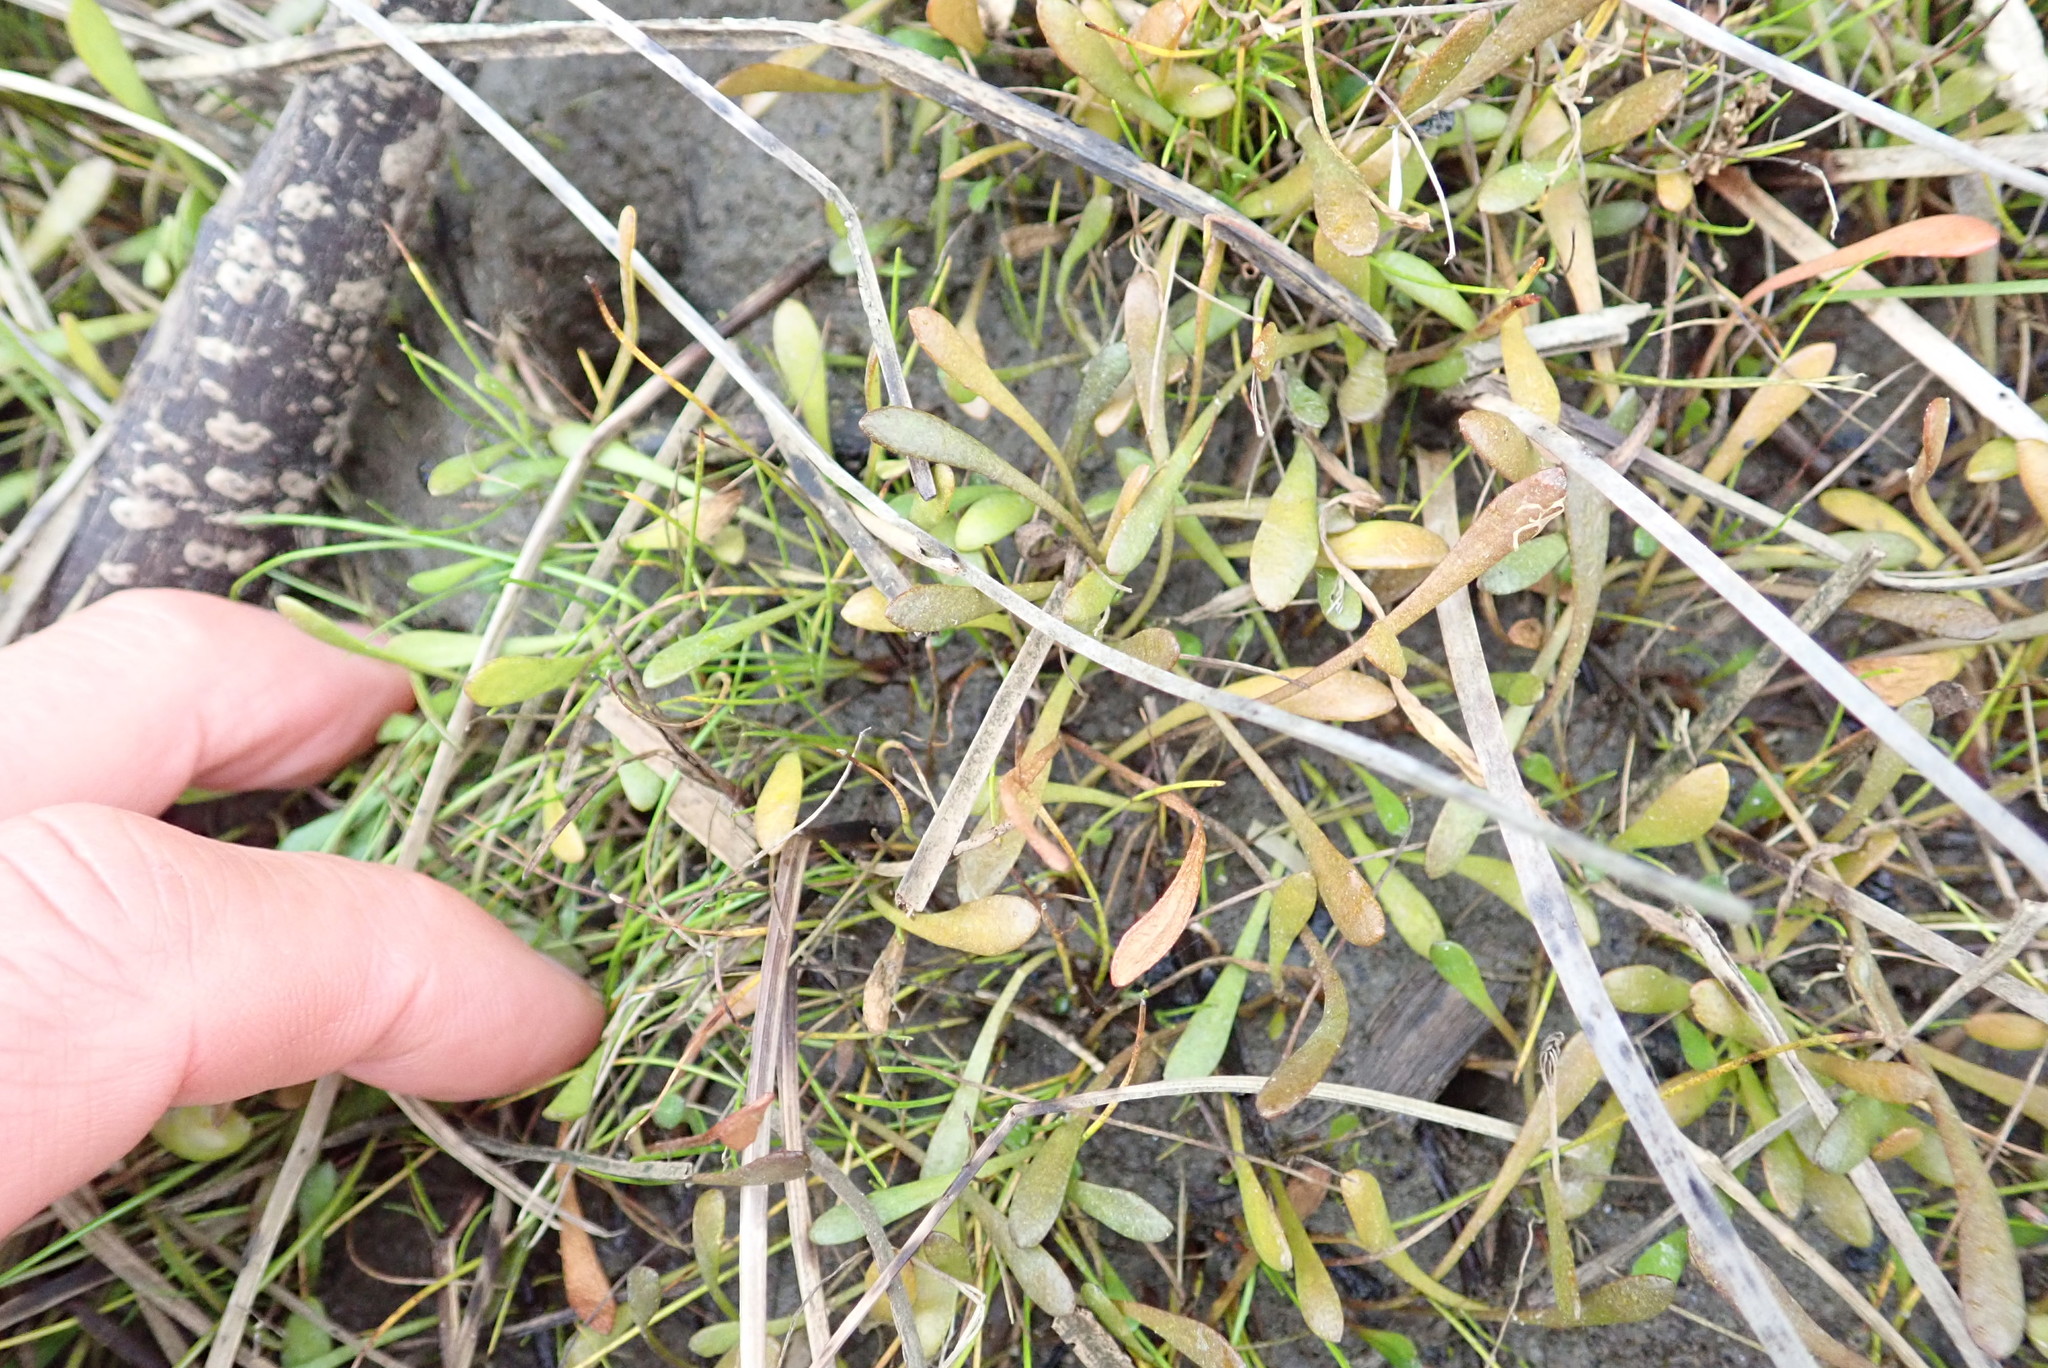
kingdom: Plantae
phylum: Tracheophyta
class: Magnoliopsida
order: Asterales
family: Goodeniaceae
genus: Goodenia
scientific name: Goodenia radicans
